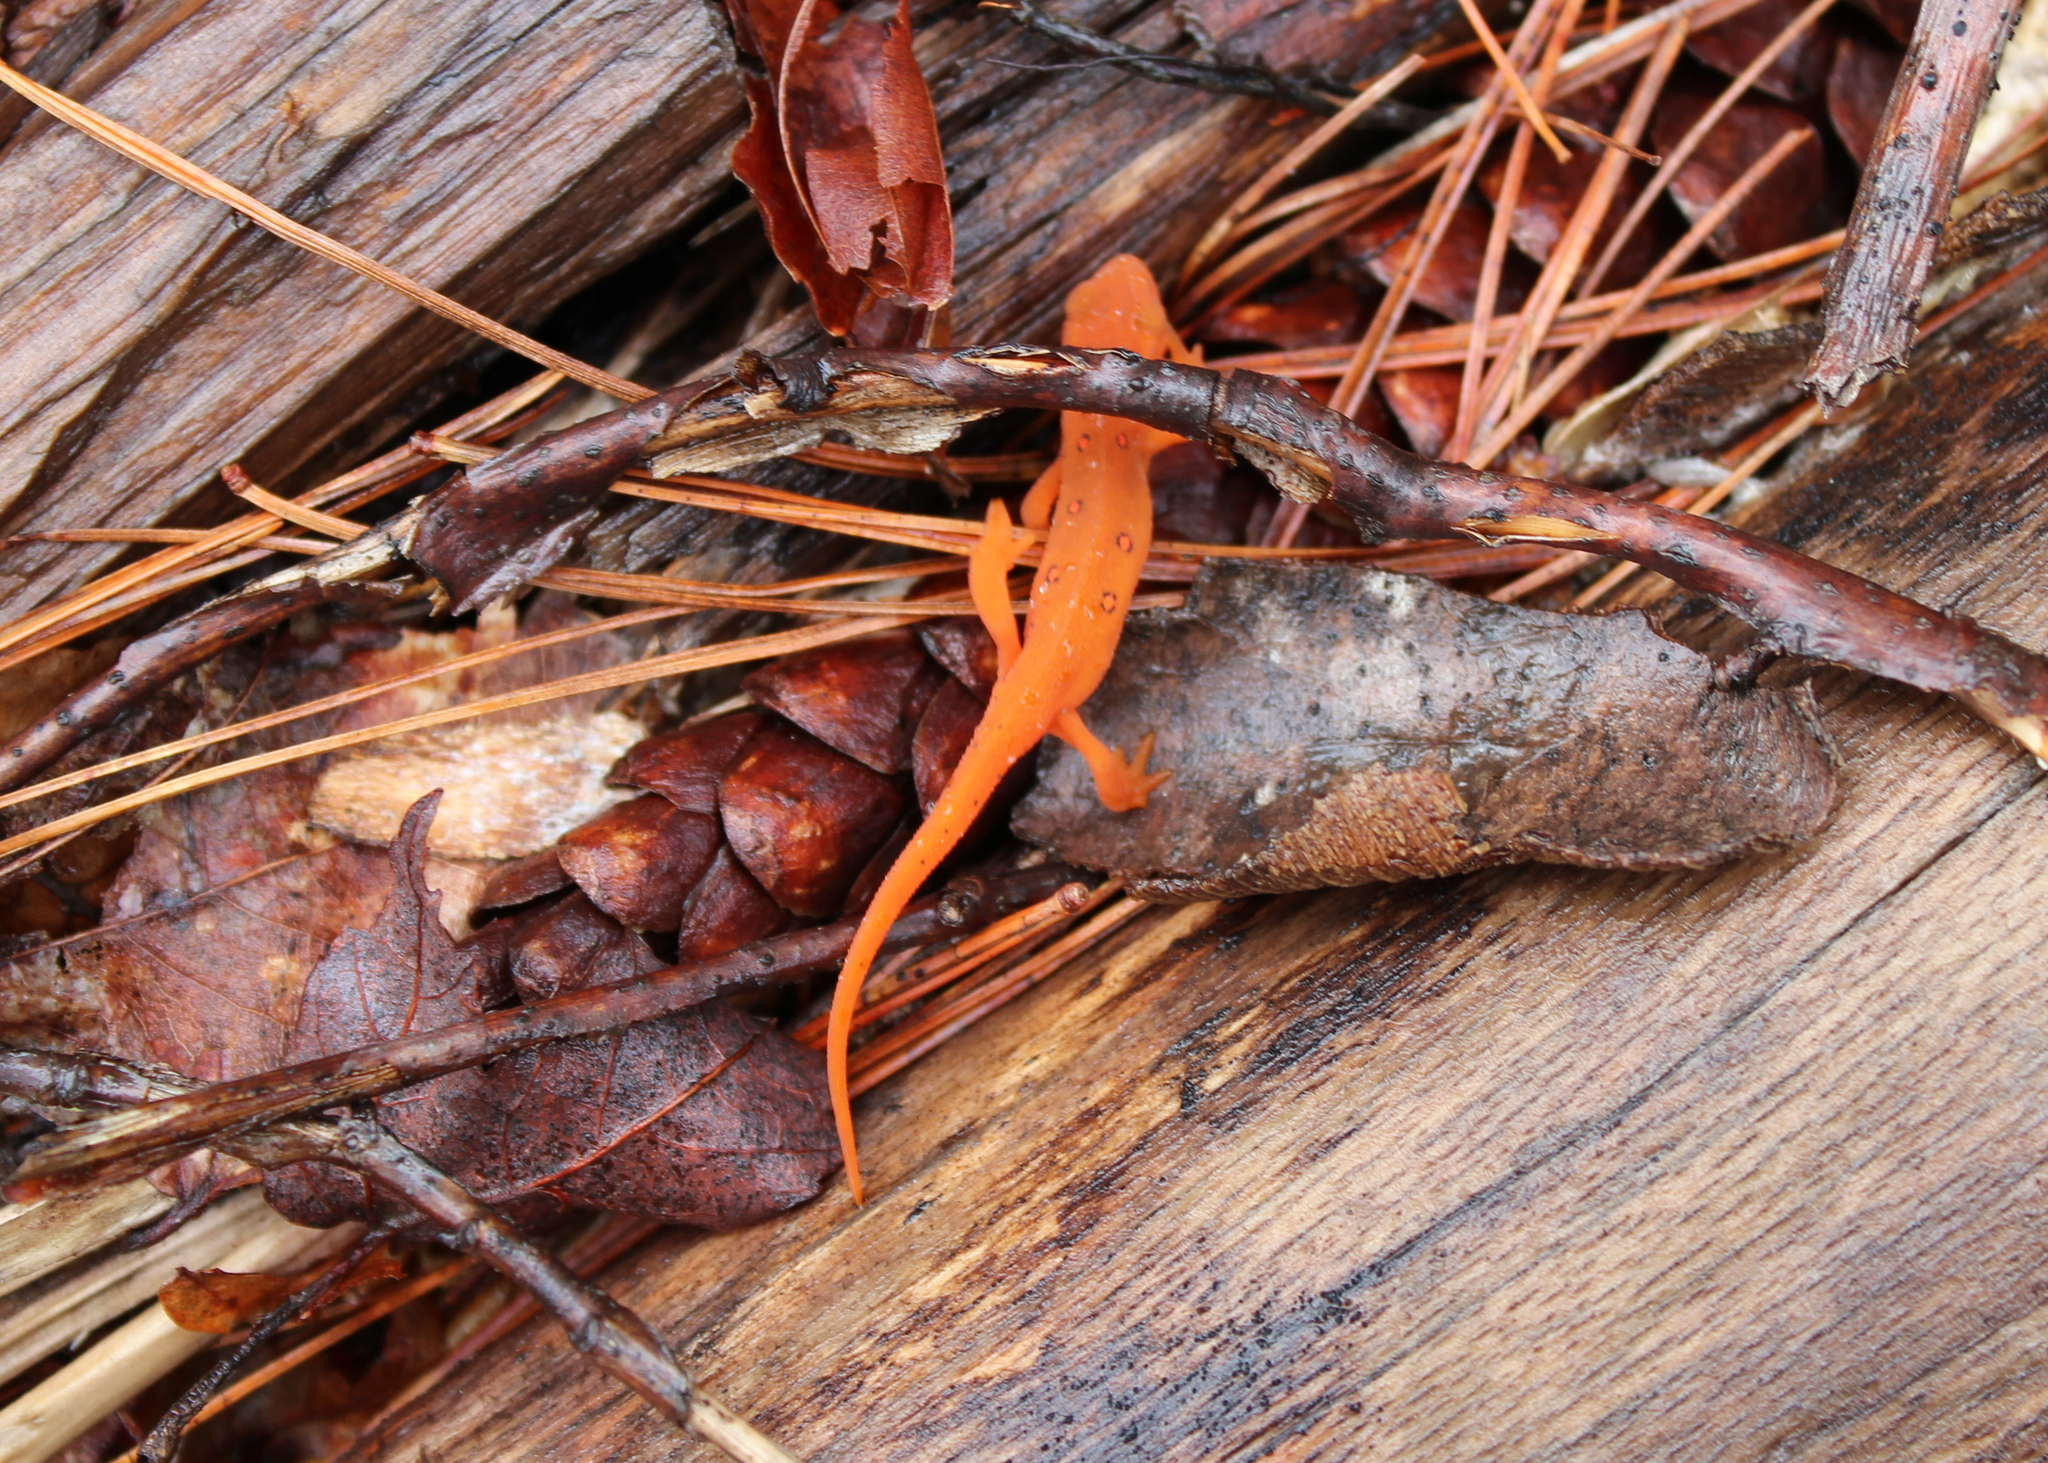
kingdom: Animalia
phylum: Chordata
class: Amphibia
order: Caudata
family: Salamandridae
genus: Notophthalmus
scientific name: Notophthalmus viridescens
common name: Eastern newt
